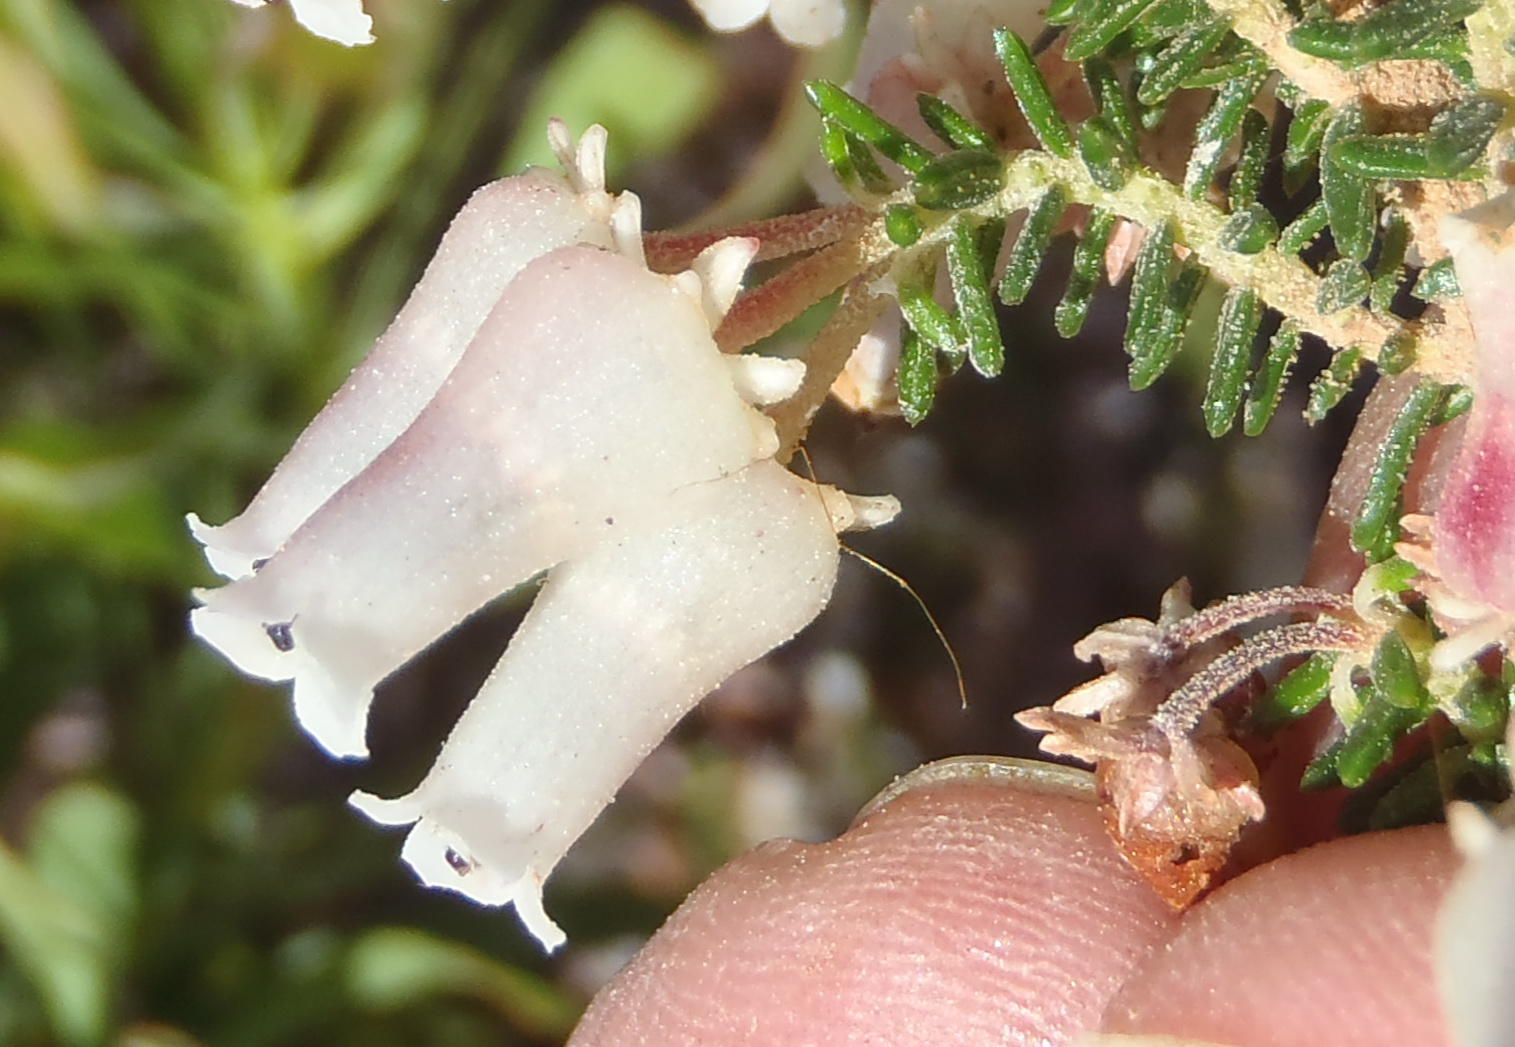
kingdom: Plantae
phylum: Tracheophyta
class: Magnoliopsida
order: Ericales
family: Ericaceae
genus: Erica
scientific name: Erica glomiflora
